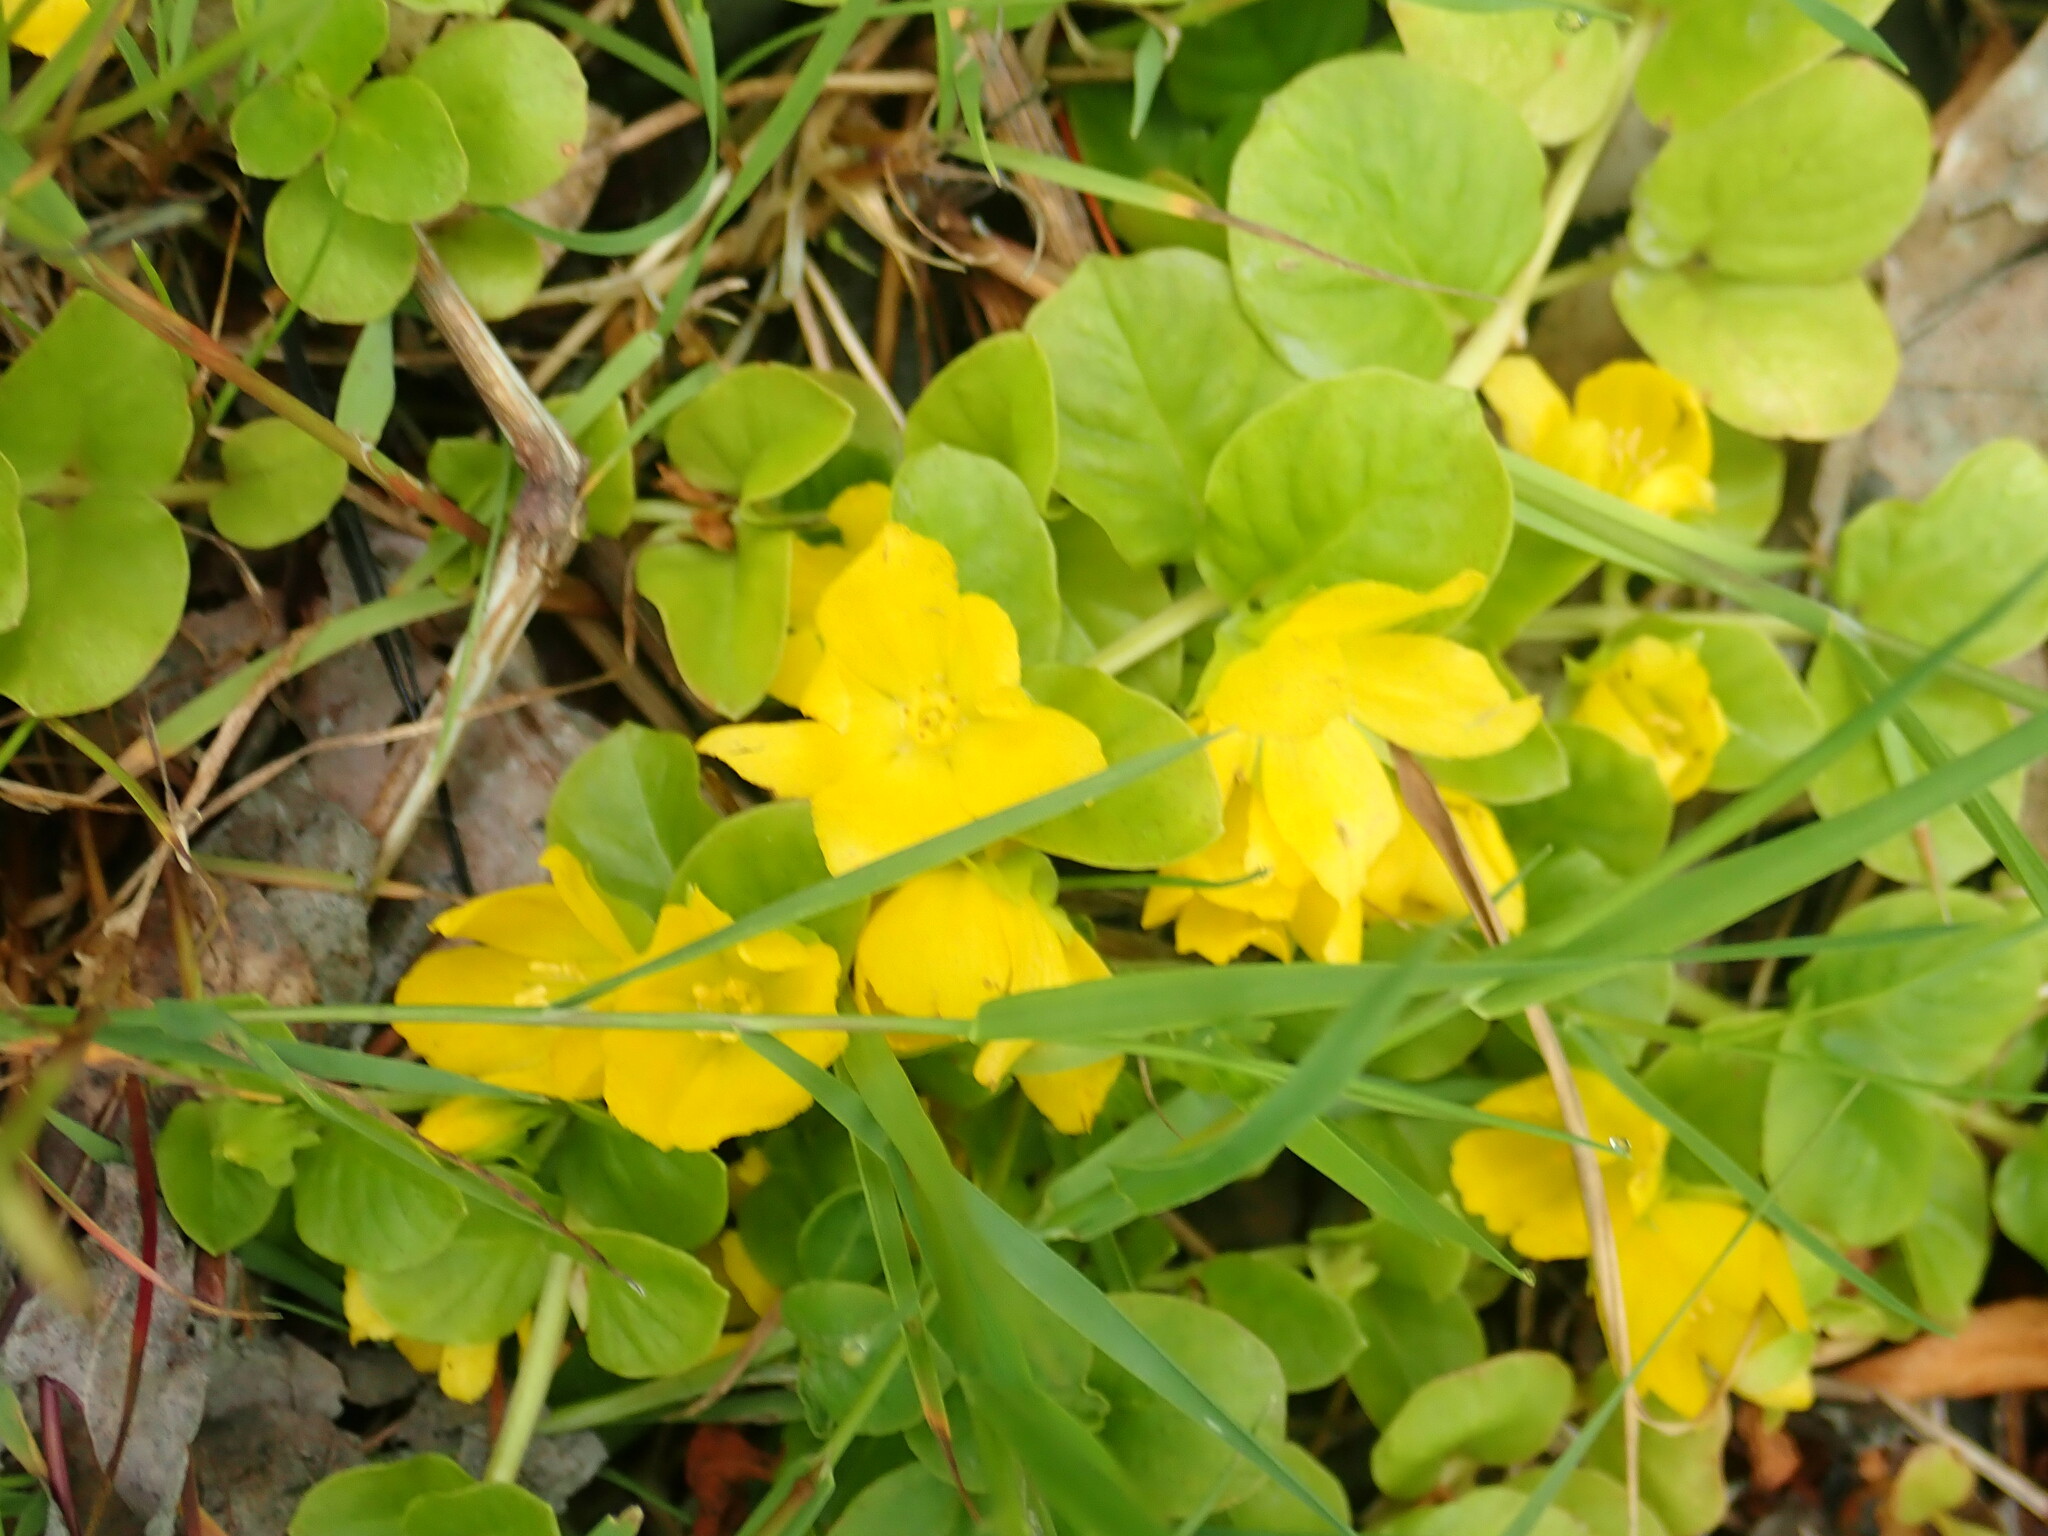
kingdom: Plantae
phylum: Tracheophyta
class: Magnoliopsida
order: Ericales
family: Primulaceae
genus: Lysimachia
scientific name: Lysimachia nummularia
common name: Moneywort
